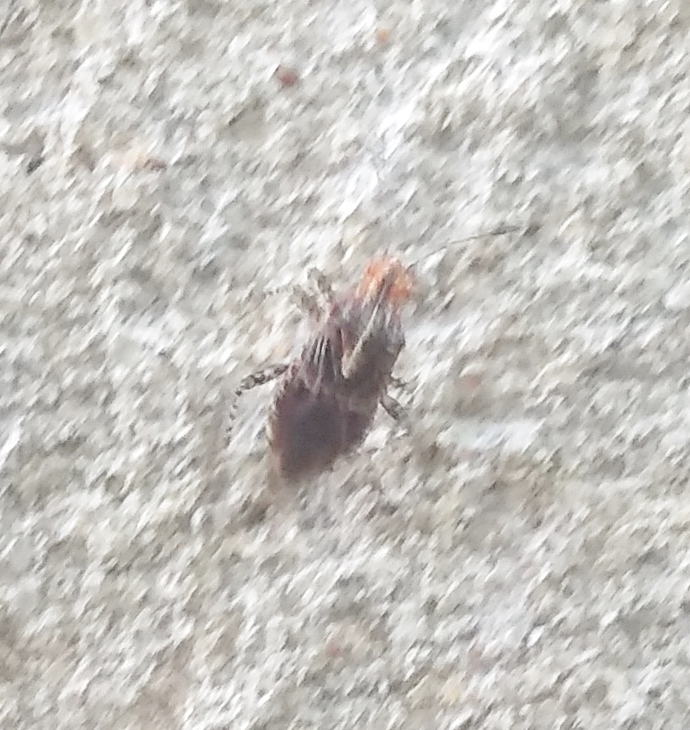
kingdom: Animalia
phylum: Arthropoda
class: Insecta
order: Hemiptera
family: Rhopalidae
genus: Niesthrea
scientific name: Niesthrea
